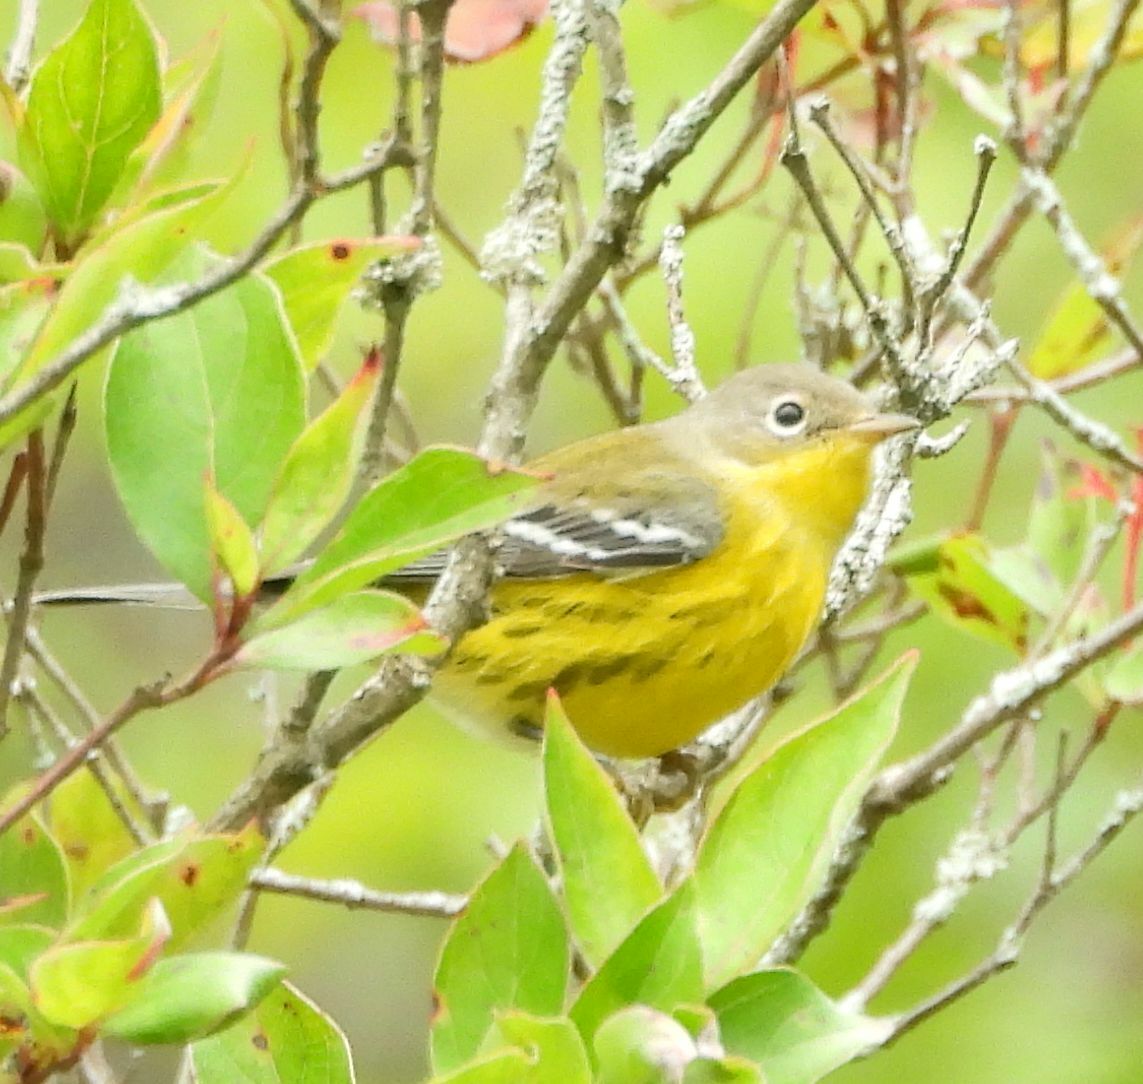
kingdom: Animalia
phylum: Chordata
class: Aves
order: Passeriformes
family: Parulidae
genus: Setophaga
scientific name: Setophaga magnolia
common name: Magnolia warbler
